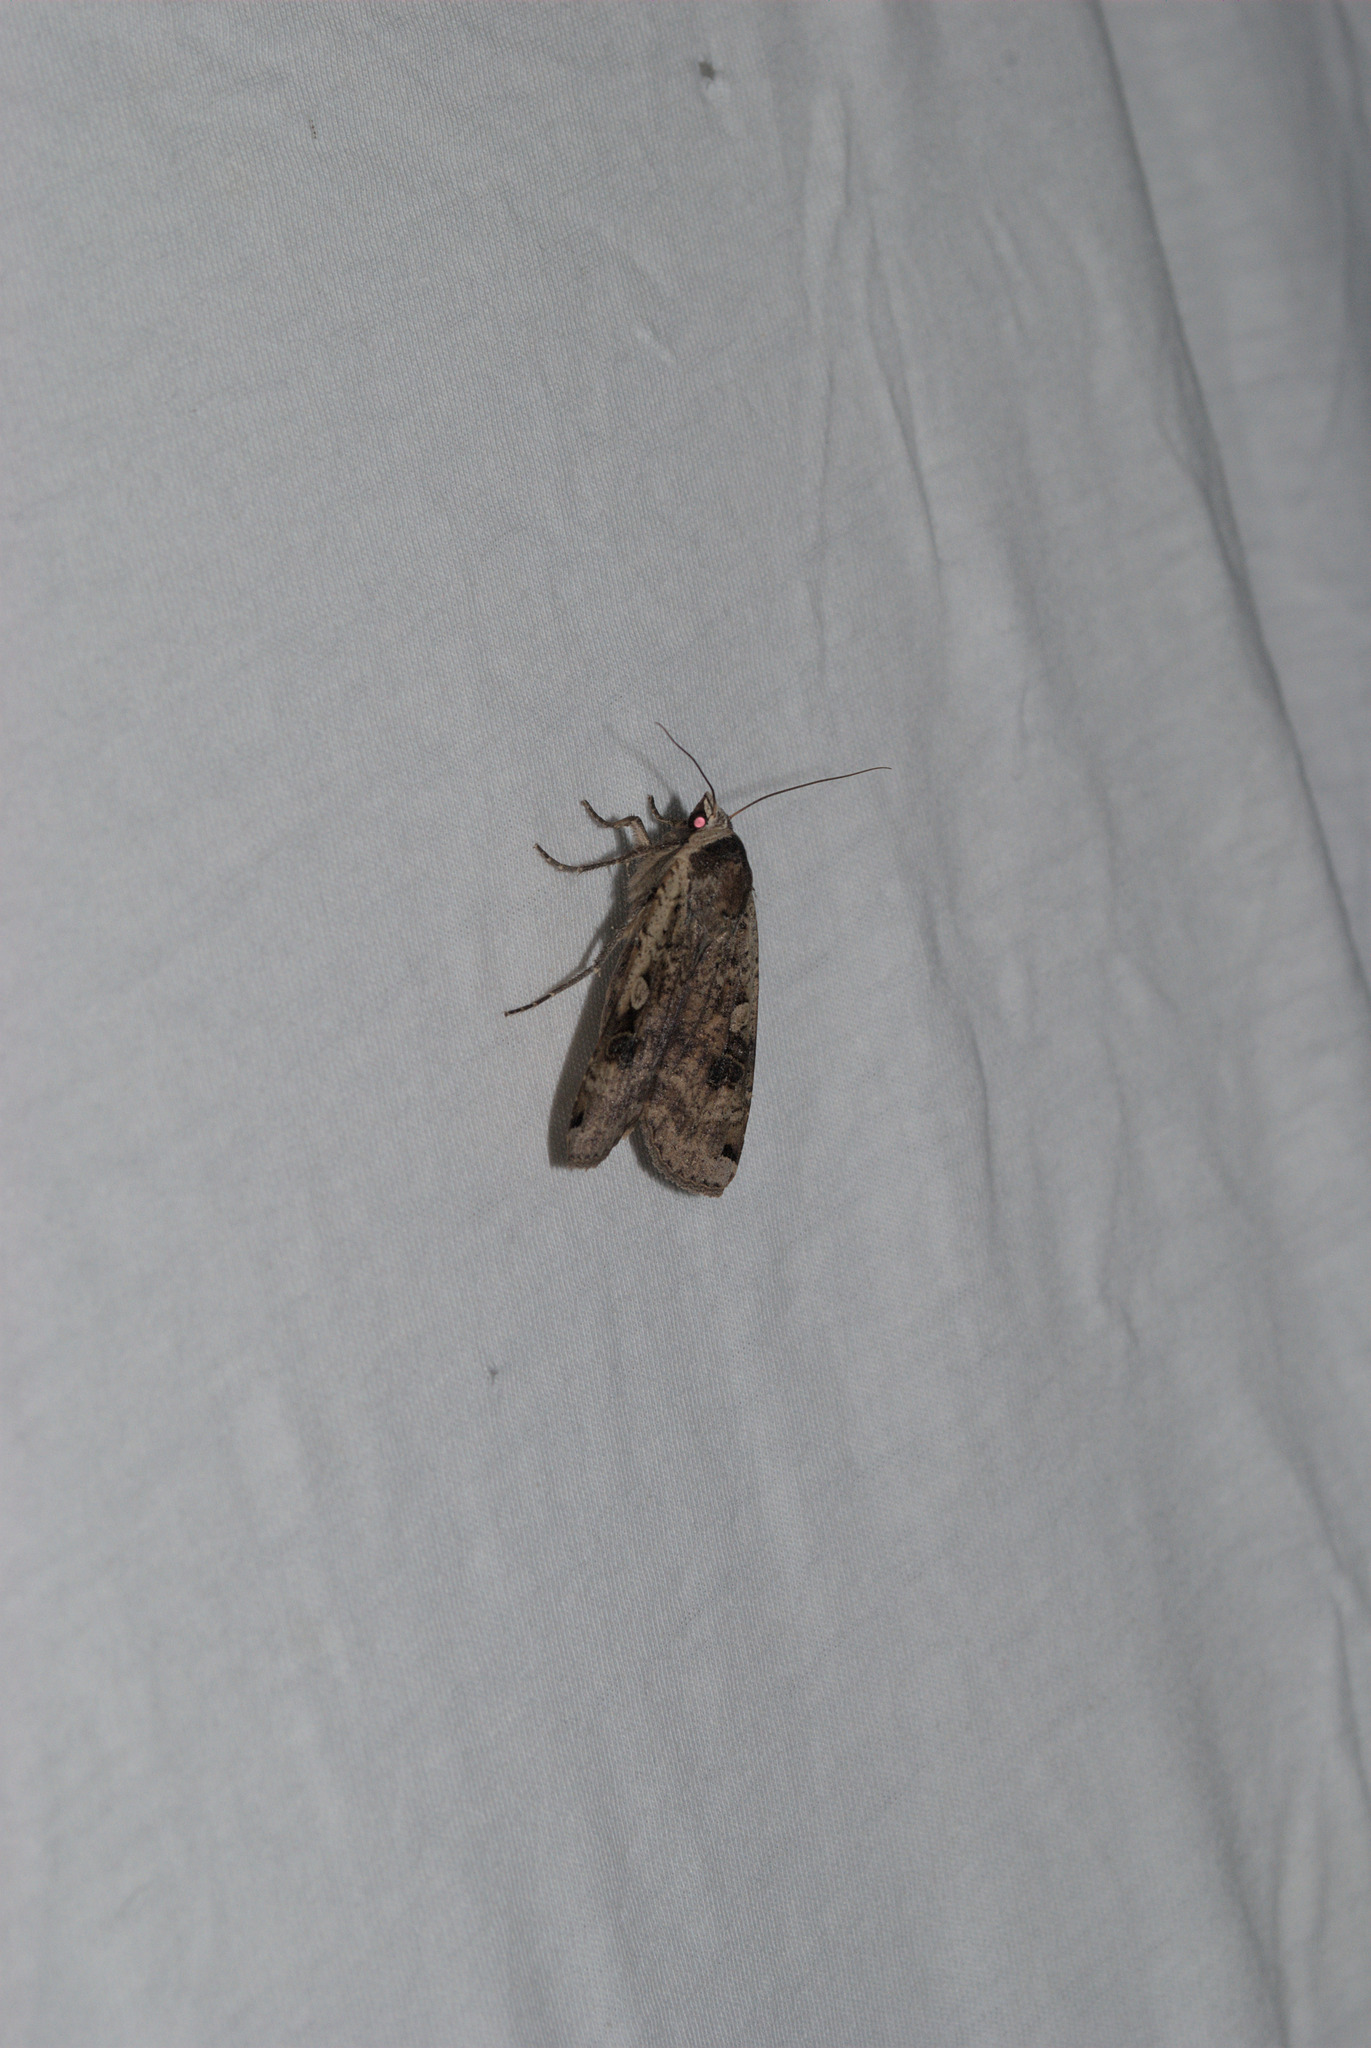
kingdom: Animalia
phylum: Arthropoda
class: Insecta
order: Lepidoptera
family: Noctuidae
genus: Apamea
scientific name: Apamea monoglypha
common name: Dark arches
